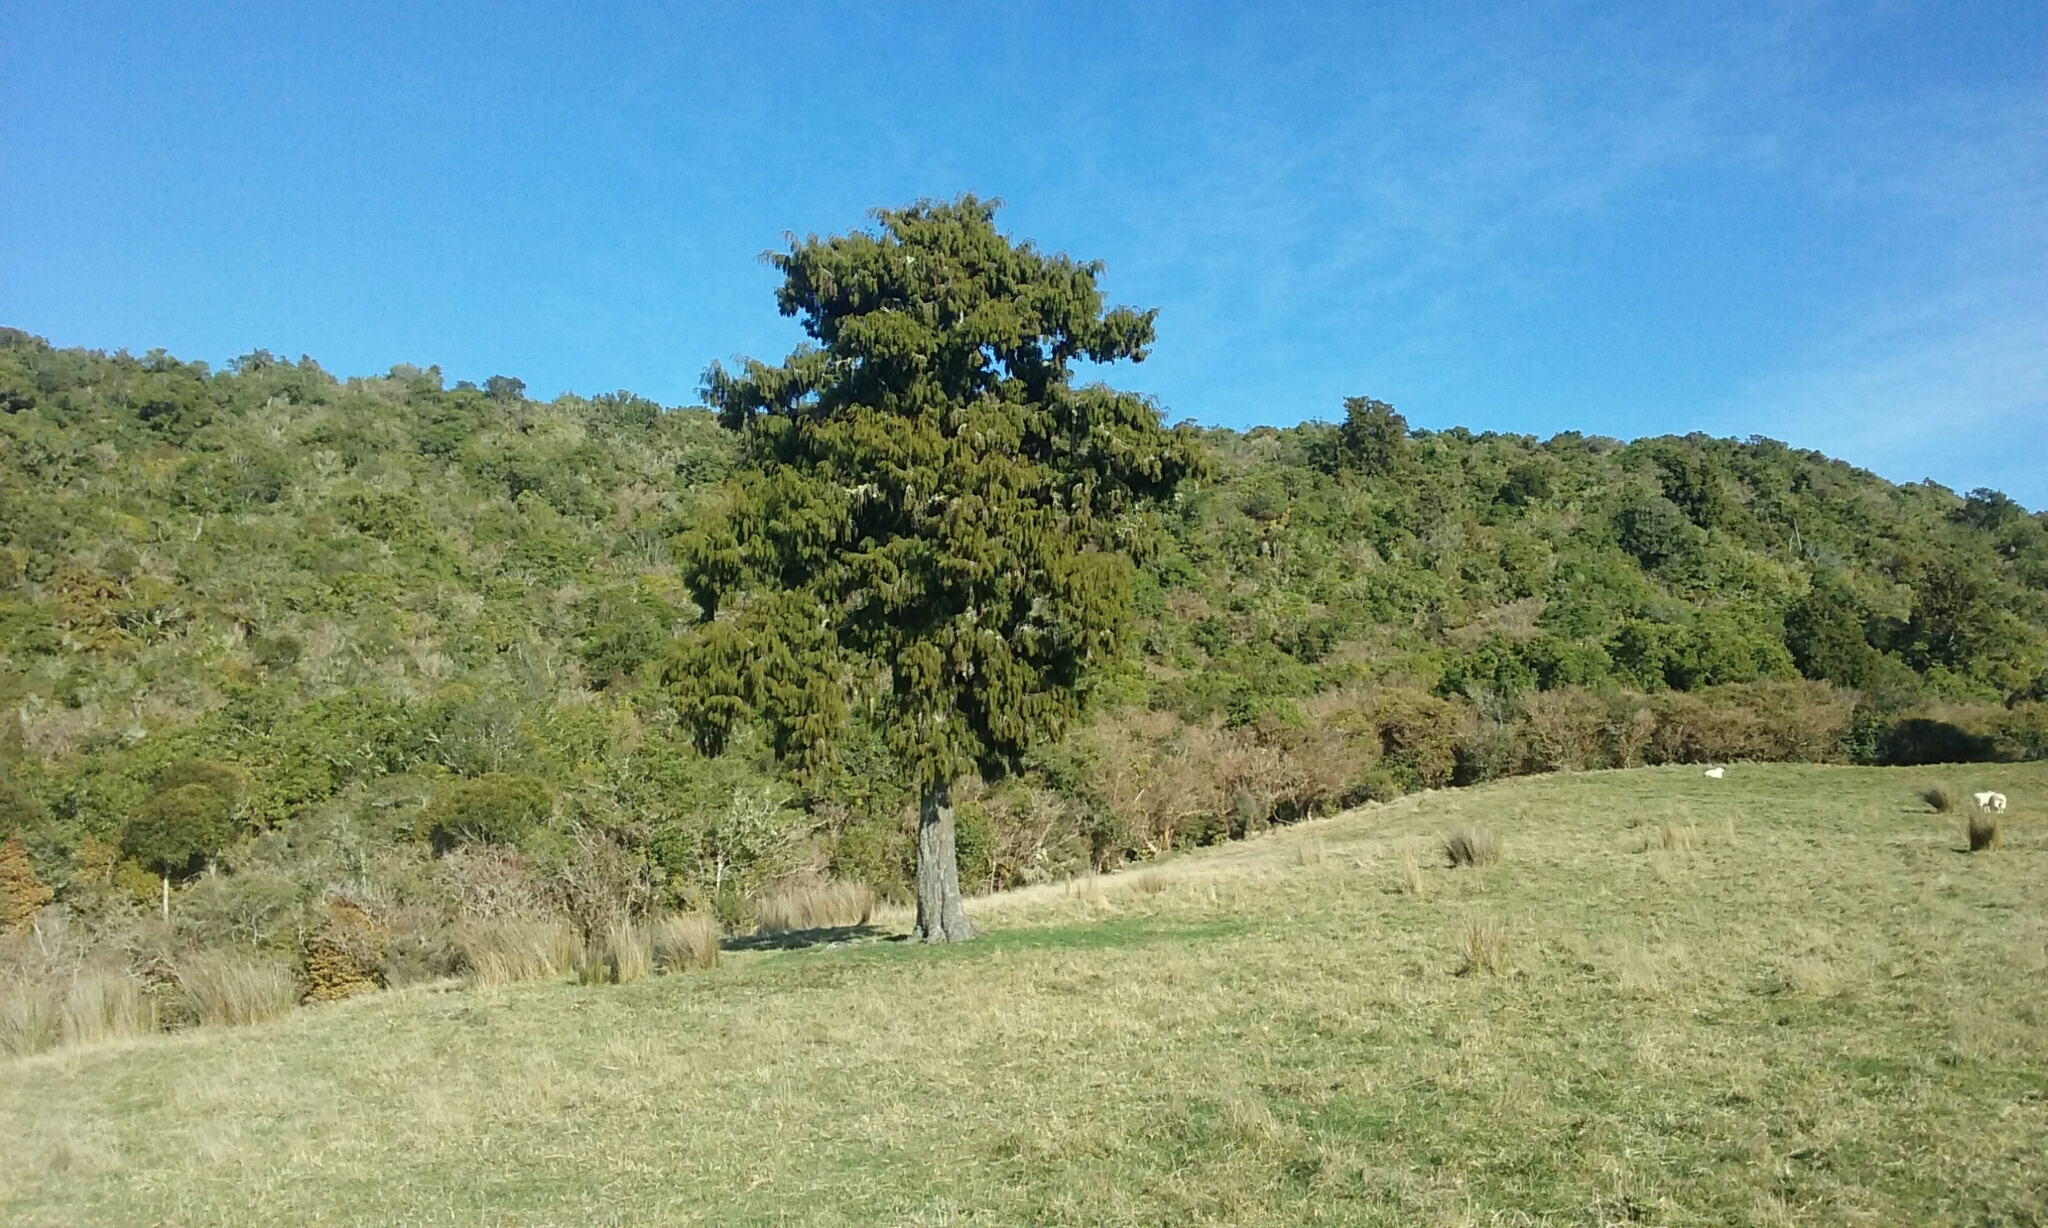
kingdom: Plantae
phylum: Tracheophyta
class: Pinopsida
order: Pinales
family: Podocarpaceae
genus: Dacrydium
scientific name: Dacrydium cupressinum
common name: Red pine
